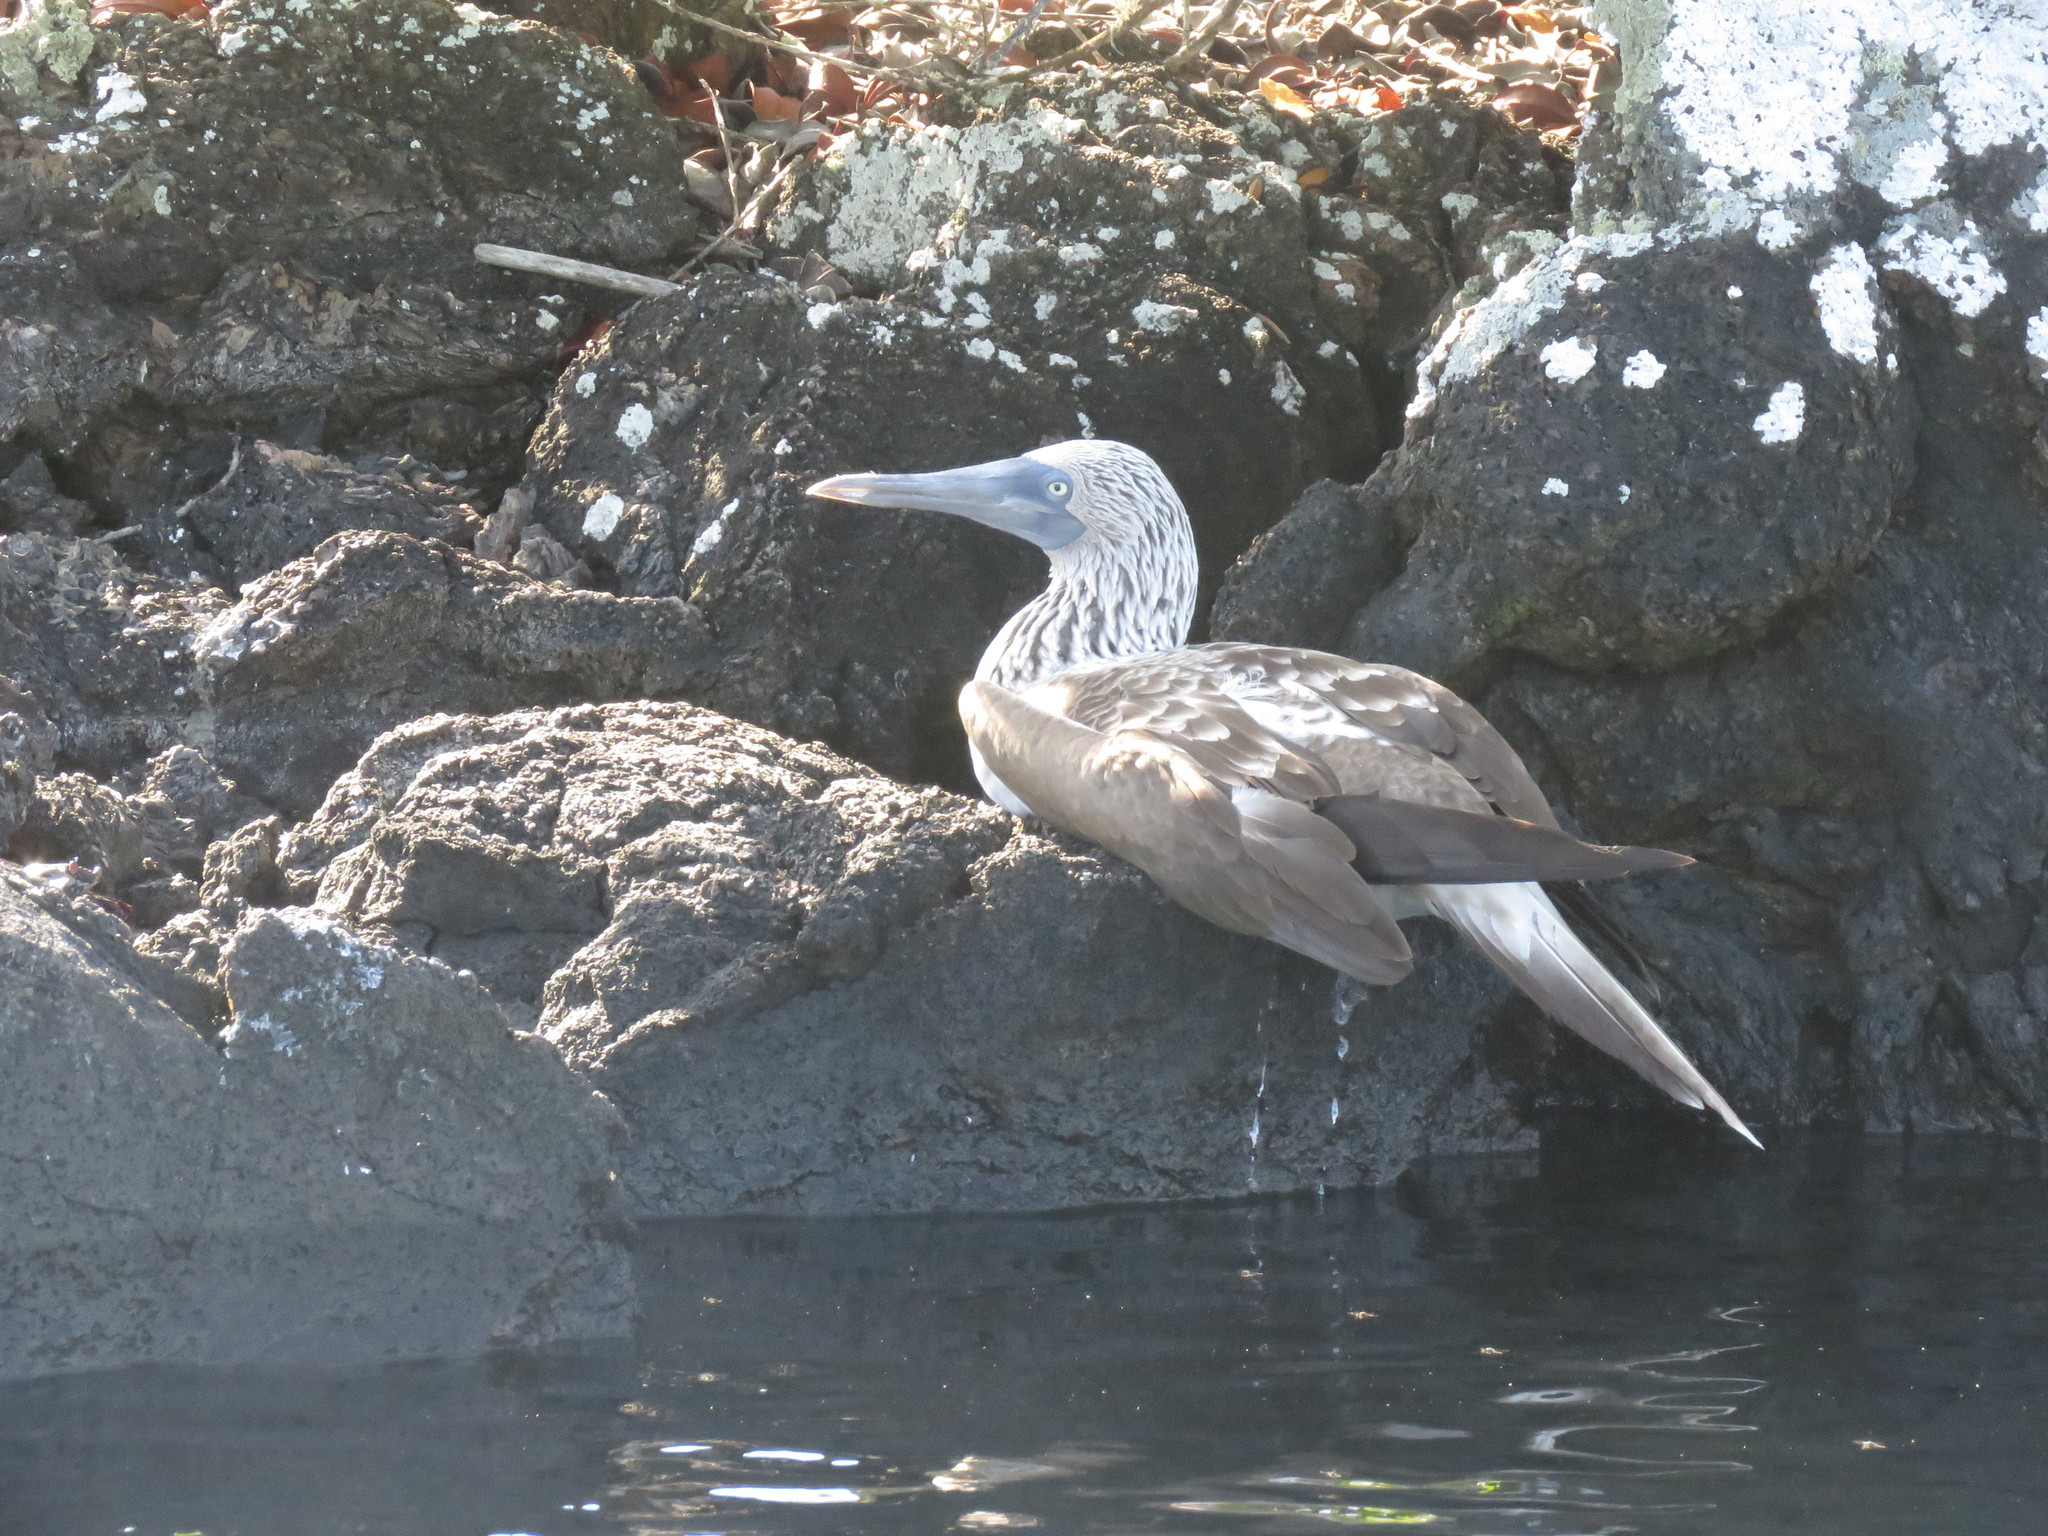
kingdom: Animalia
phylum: Chordata
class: Aves
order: Suliformes
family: Sulidae
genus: Sula
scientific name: Sula nebouxii
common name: Blue-footed booby
